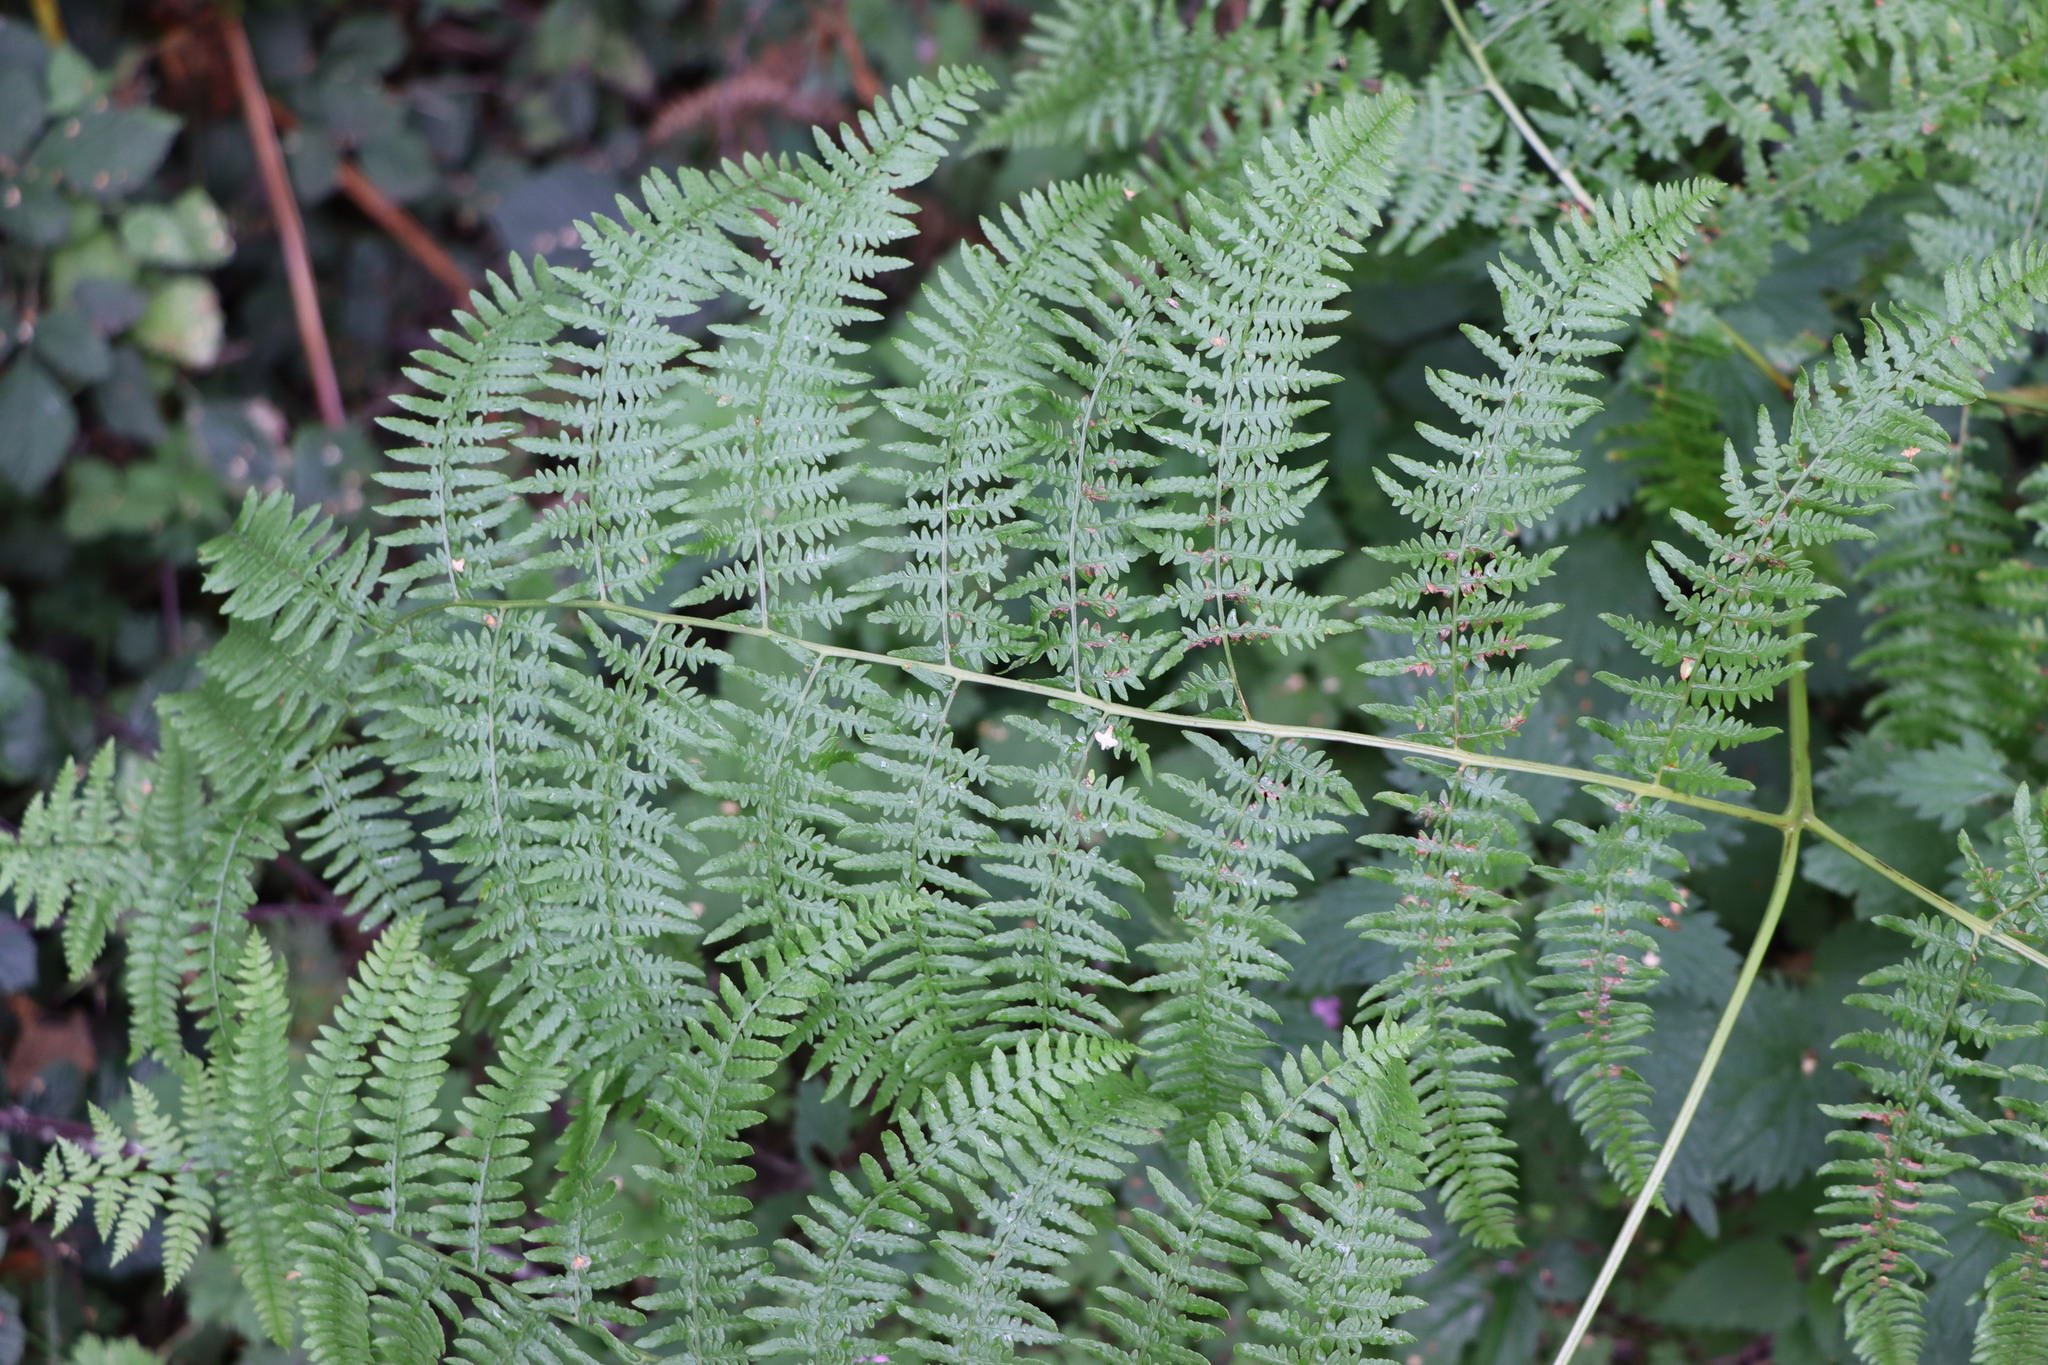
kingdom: Plantae
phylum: Tracheophyta
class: Polypodiopsida
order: Polypodiales
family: Dennstaedtiaceae
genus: Pteridium
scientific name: Pteridium aquilinum
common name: Bracken
